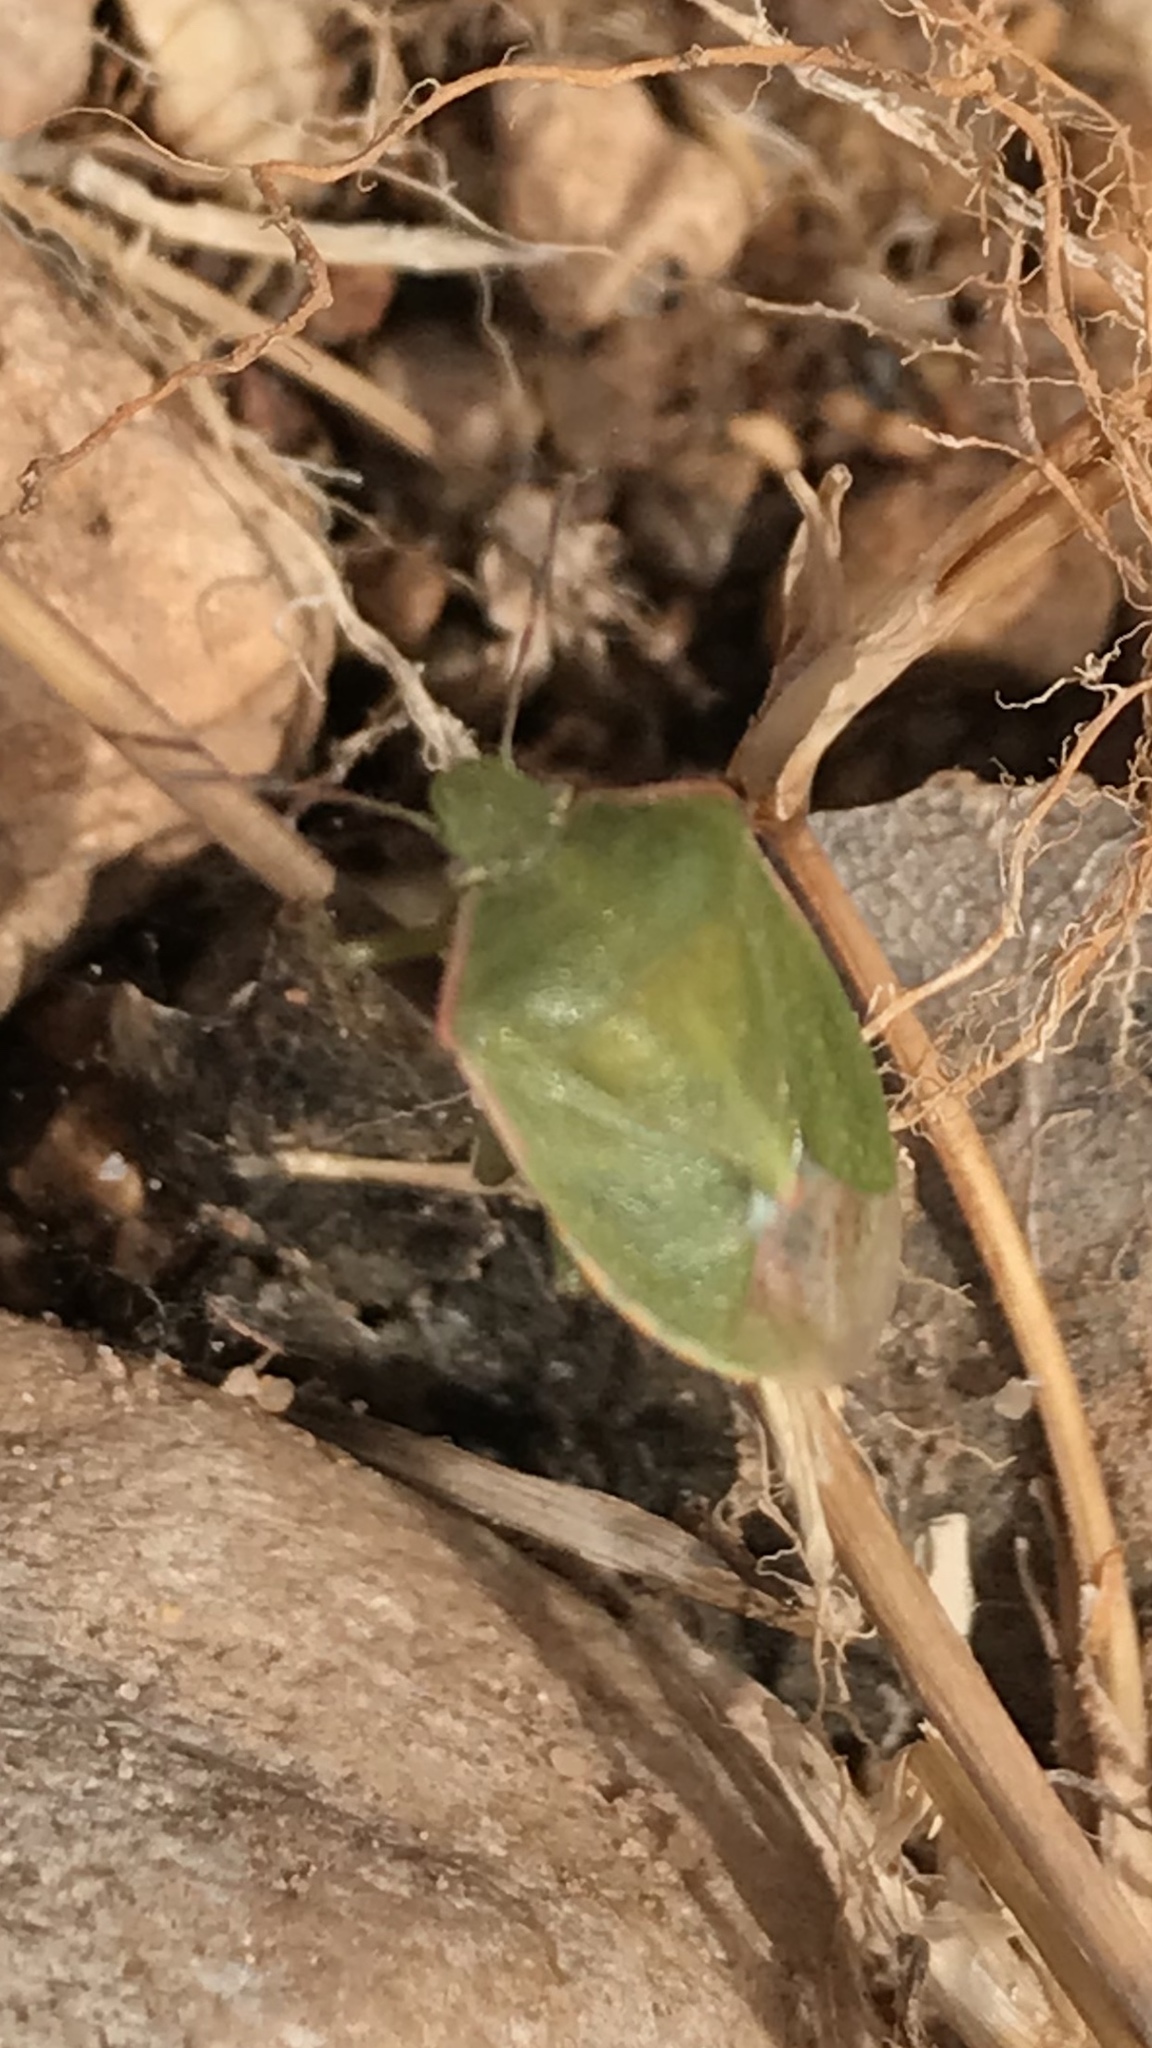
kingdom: Animalia
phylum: Arthropoda
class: Insecta
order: Hemiptera
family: Pentatomidae
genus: Thyanta
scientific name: Thyanta custator
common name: Stink bug
